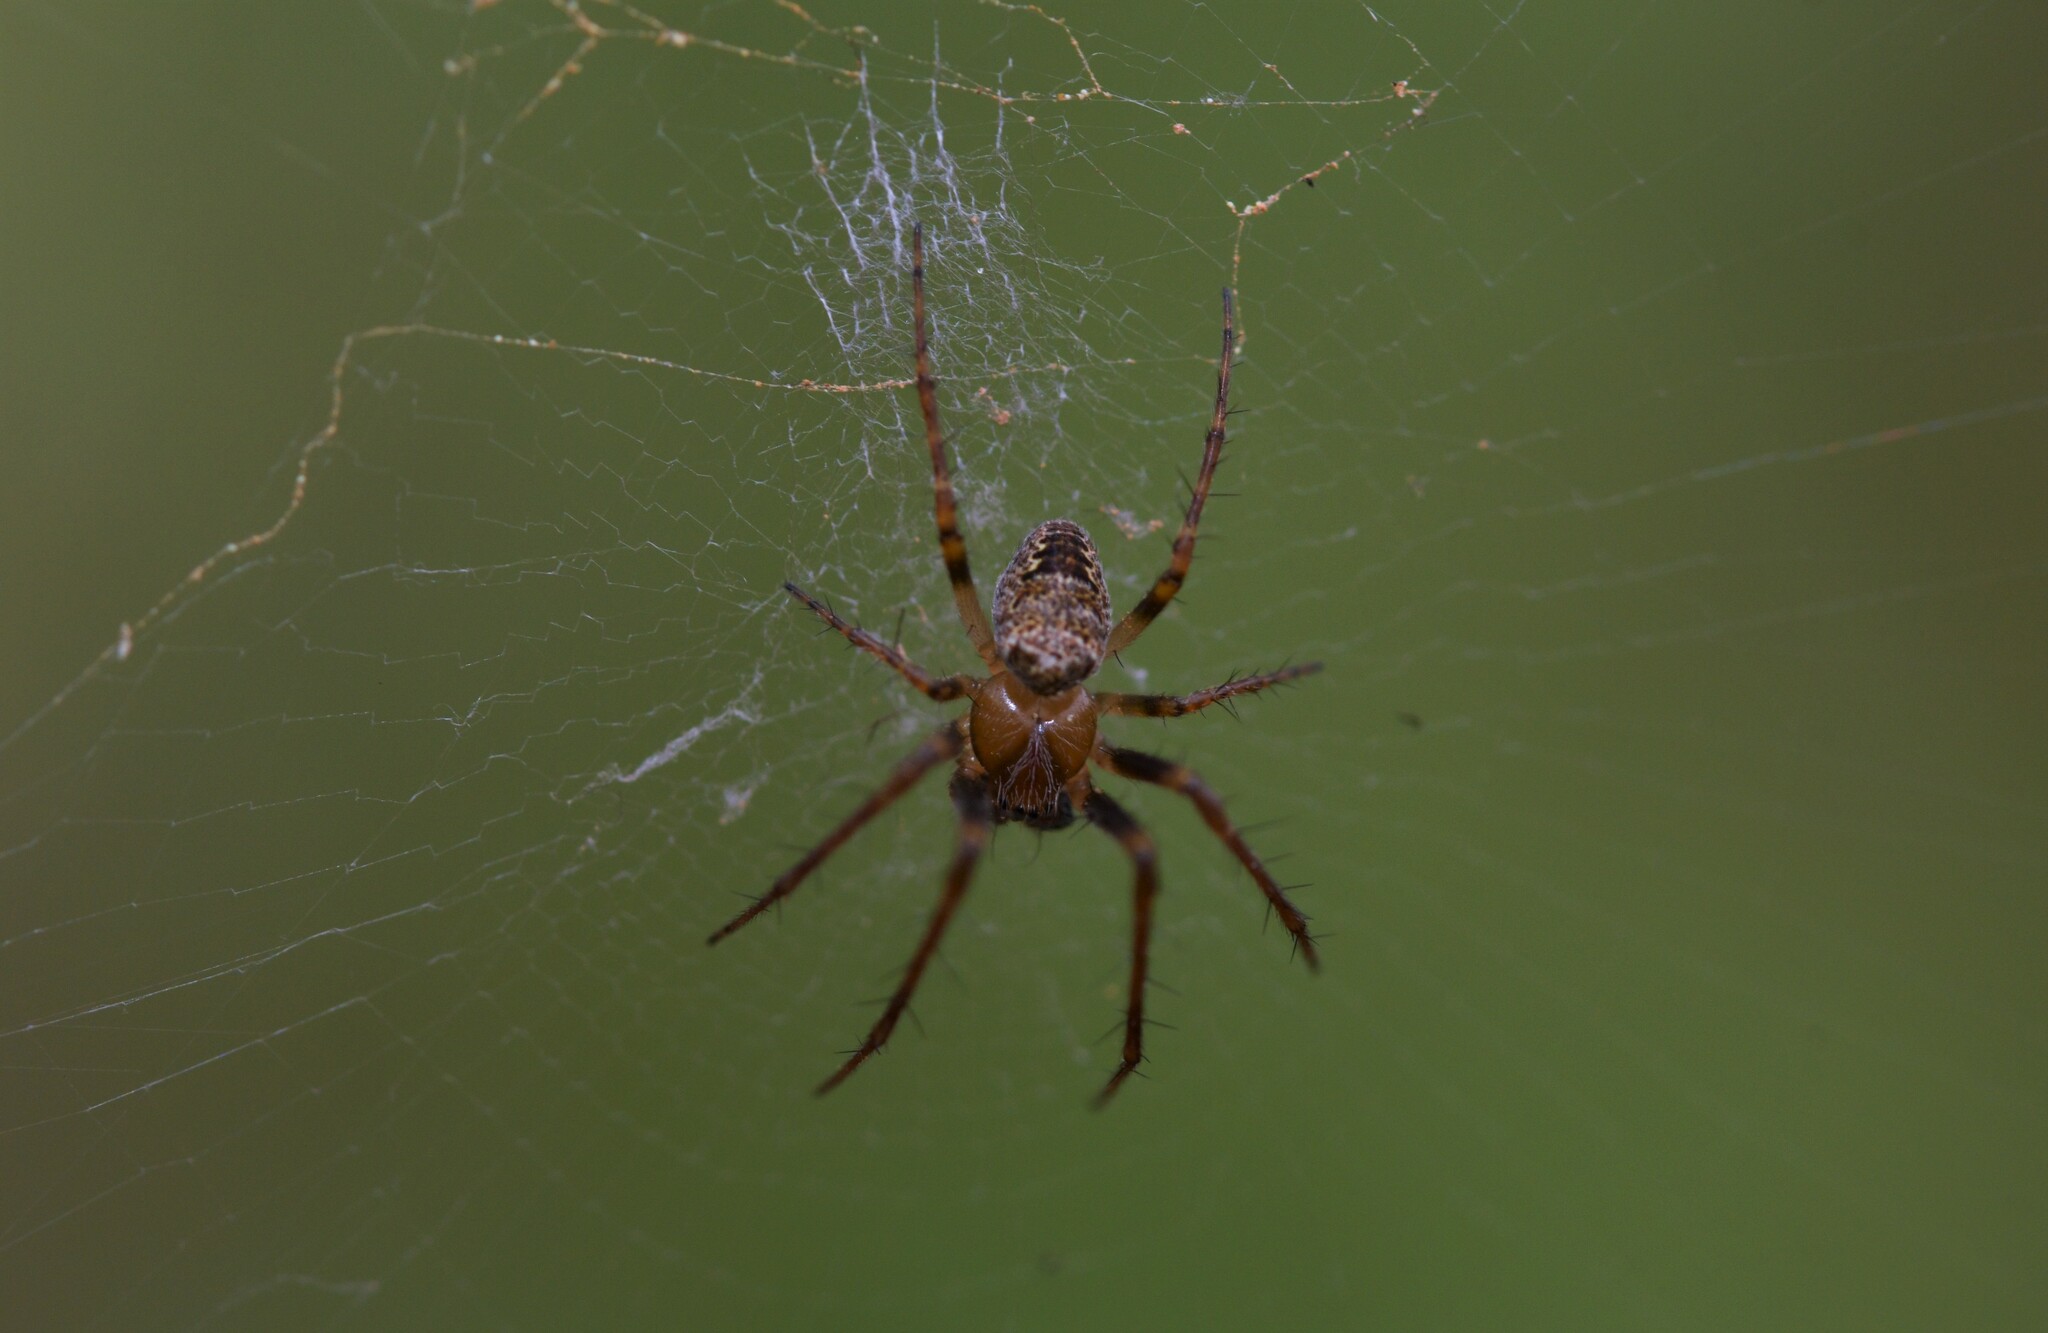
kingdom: Animalia
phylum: Arthropoda
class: Arachnida
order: Araneae
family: Araneidae
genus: Zilla
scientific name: Zilla diodia
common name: Zilla diodia
